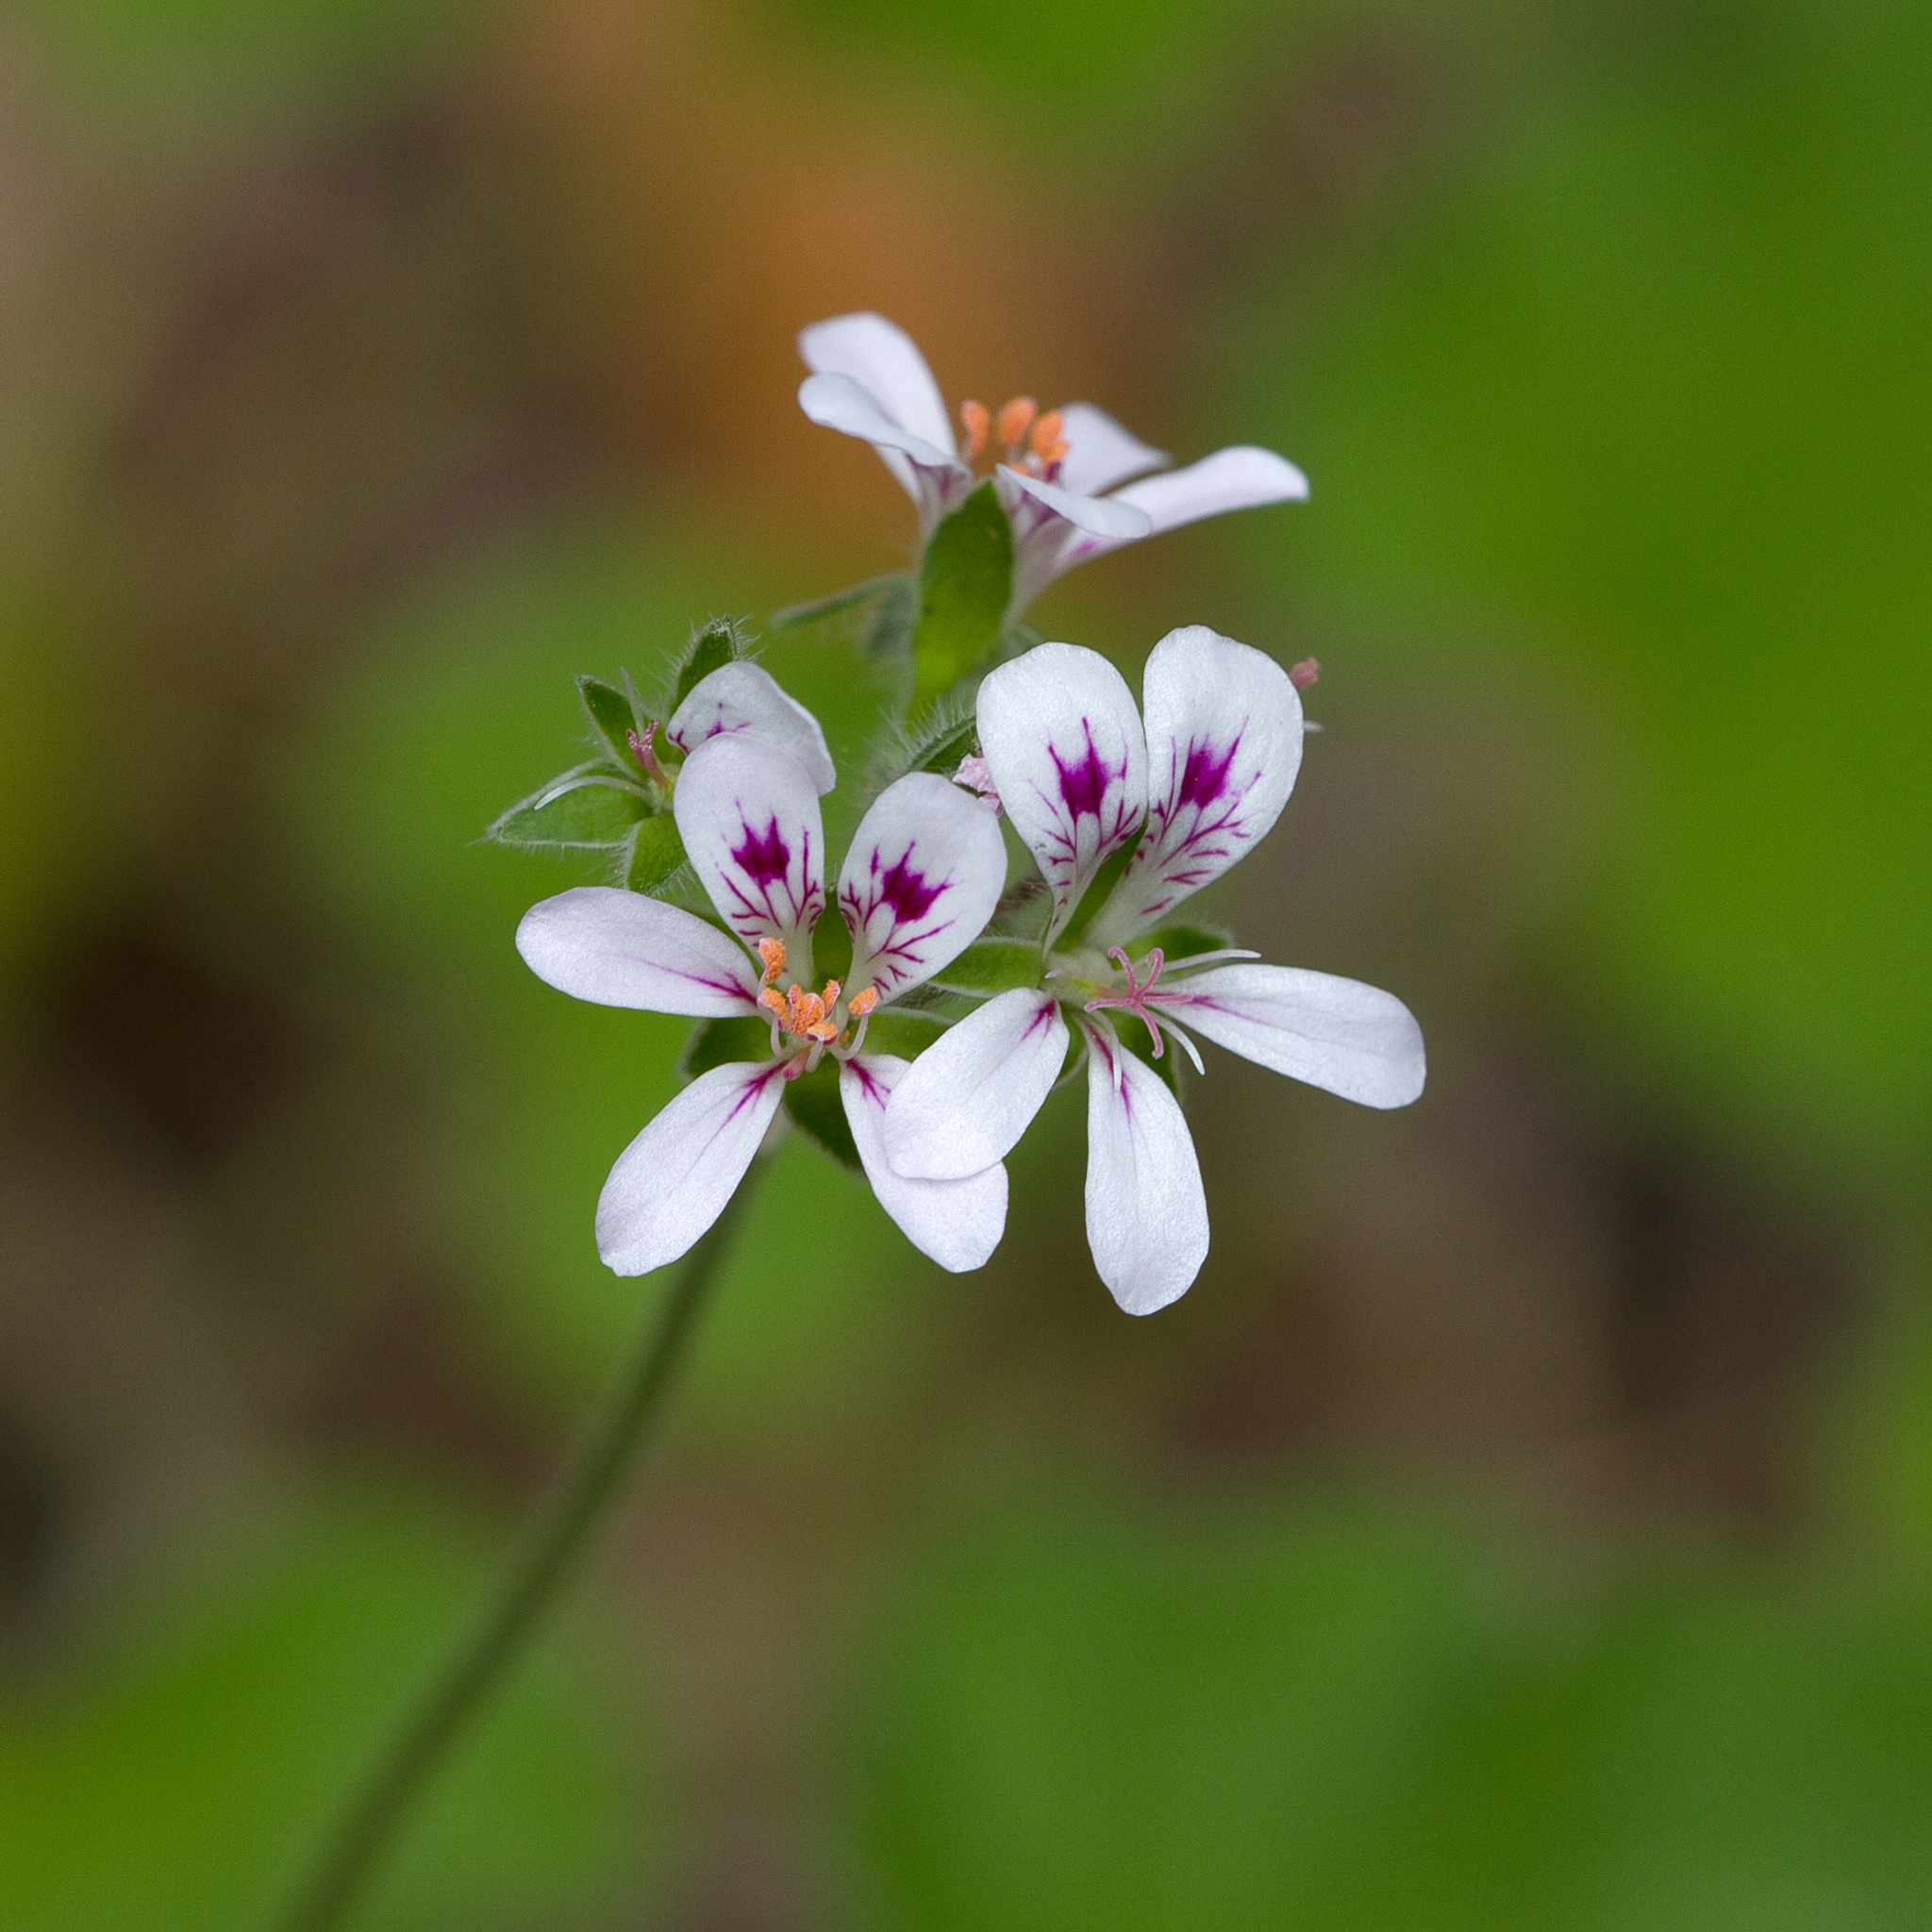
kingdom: Plantae
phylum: Tracheophyta
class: Magnoliopsida
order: Geraniales
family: Geraniaceae
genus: Pelargonium
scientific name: Pelargonium australe
